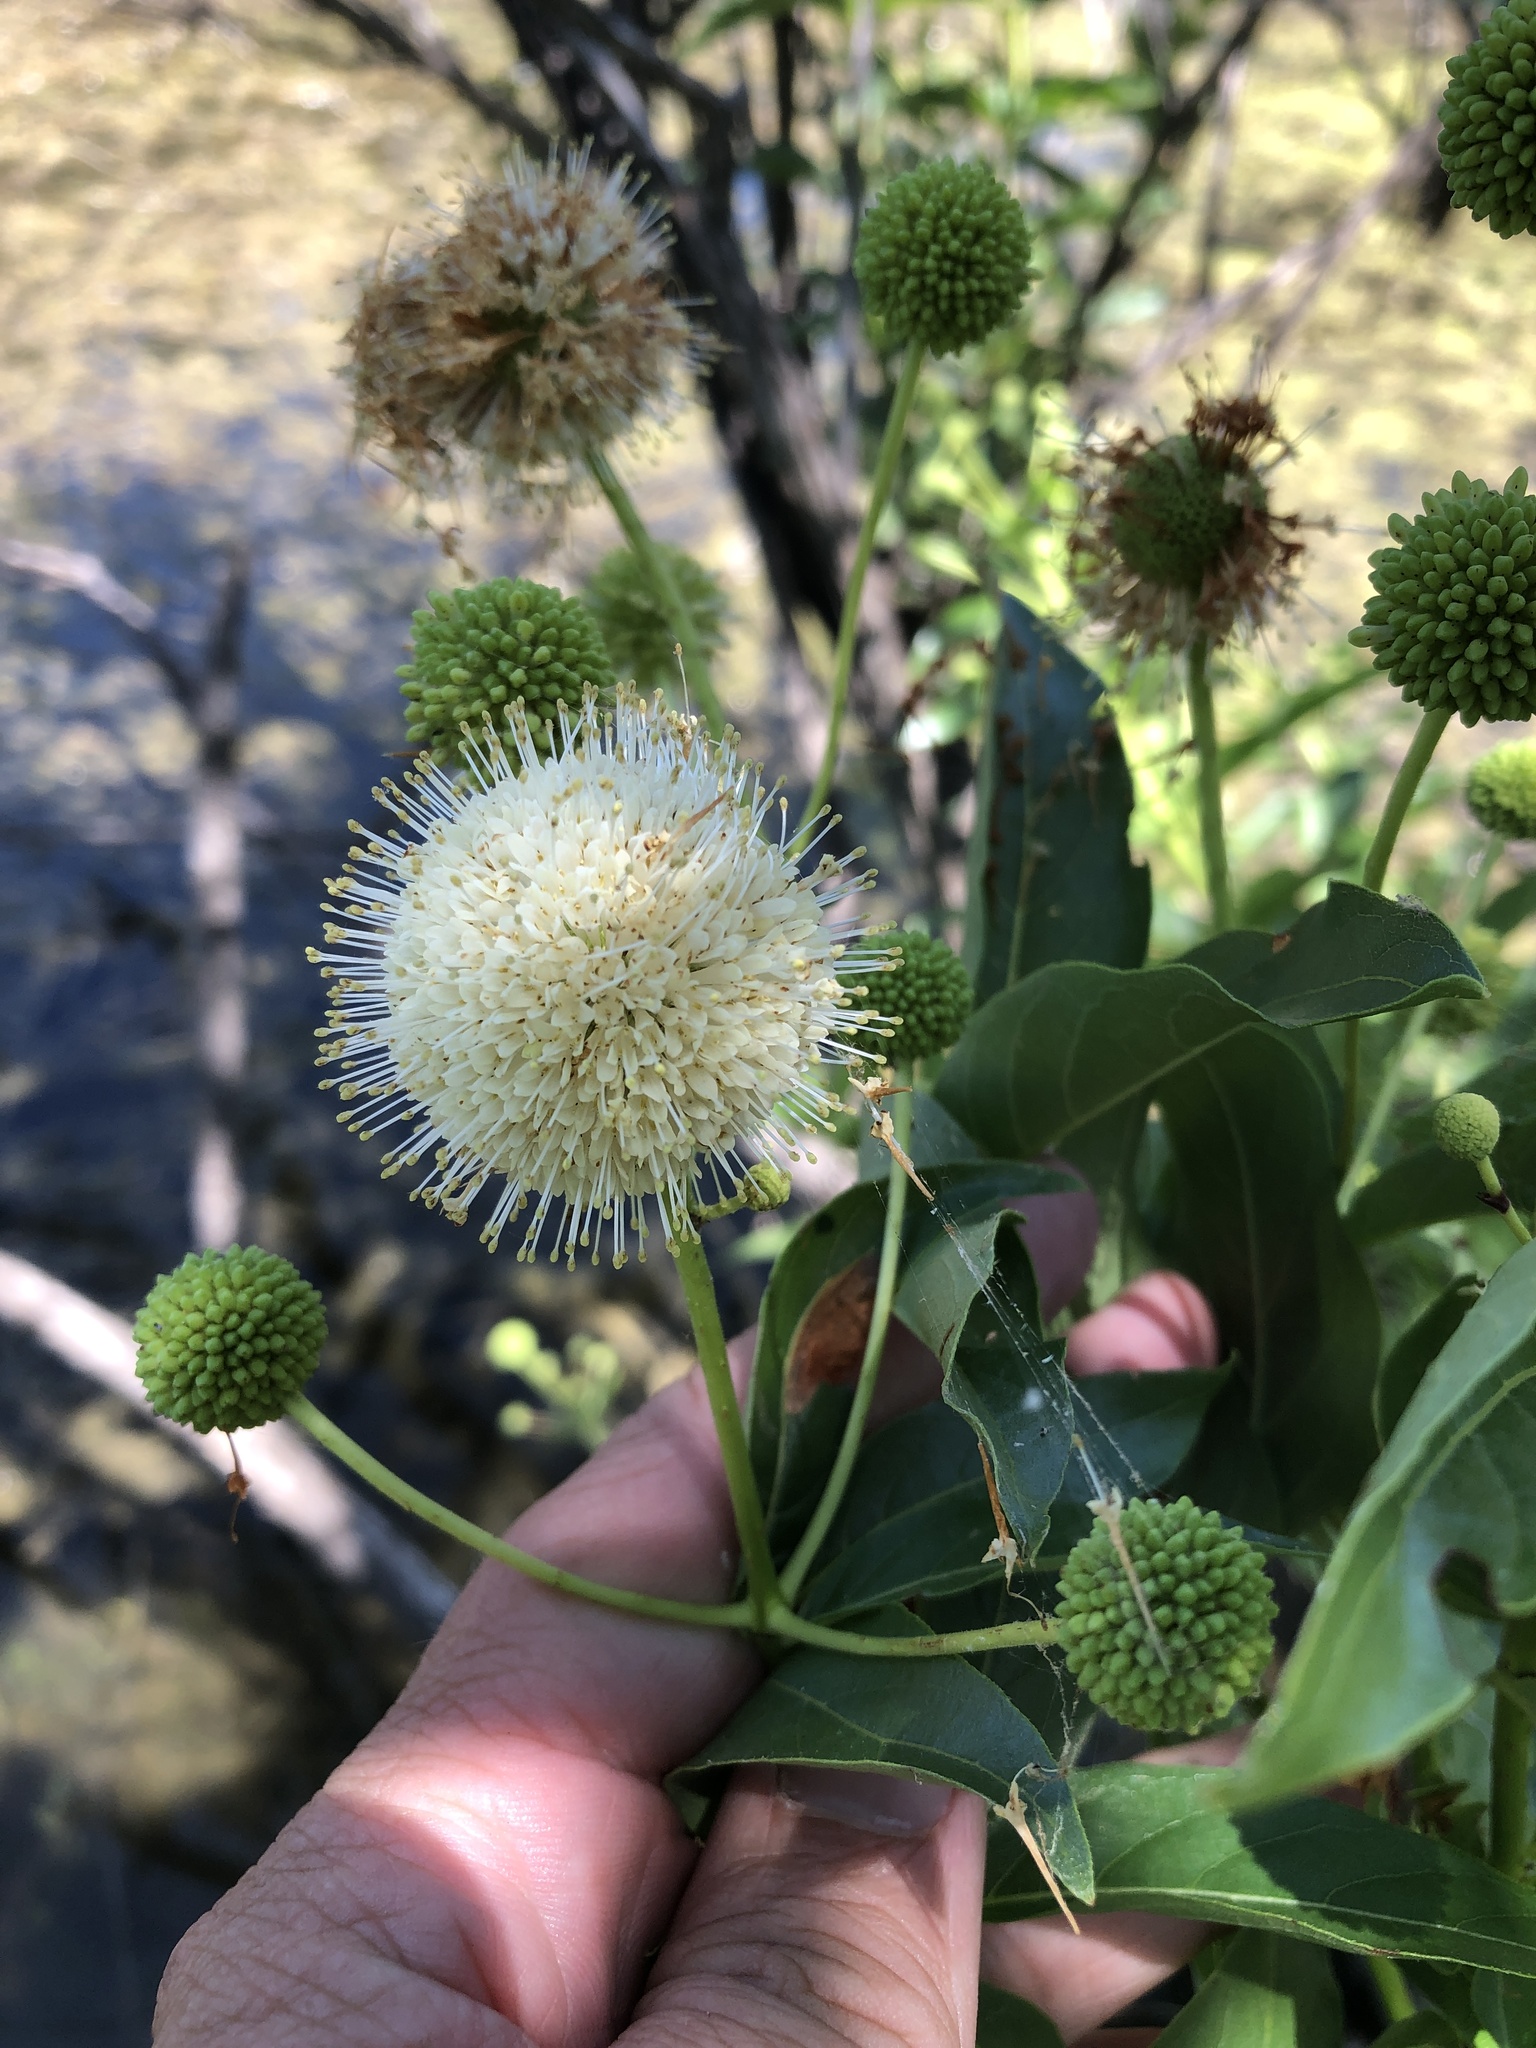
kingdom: Plantae
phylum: Tracheophyta
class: Magnoliopsida
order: Gentianales
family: Rubiaceae
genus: Cephalanthus
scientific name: Cephalanthus occidentalis
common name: Button-willow
